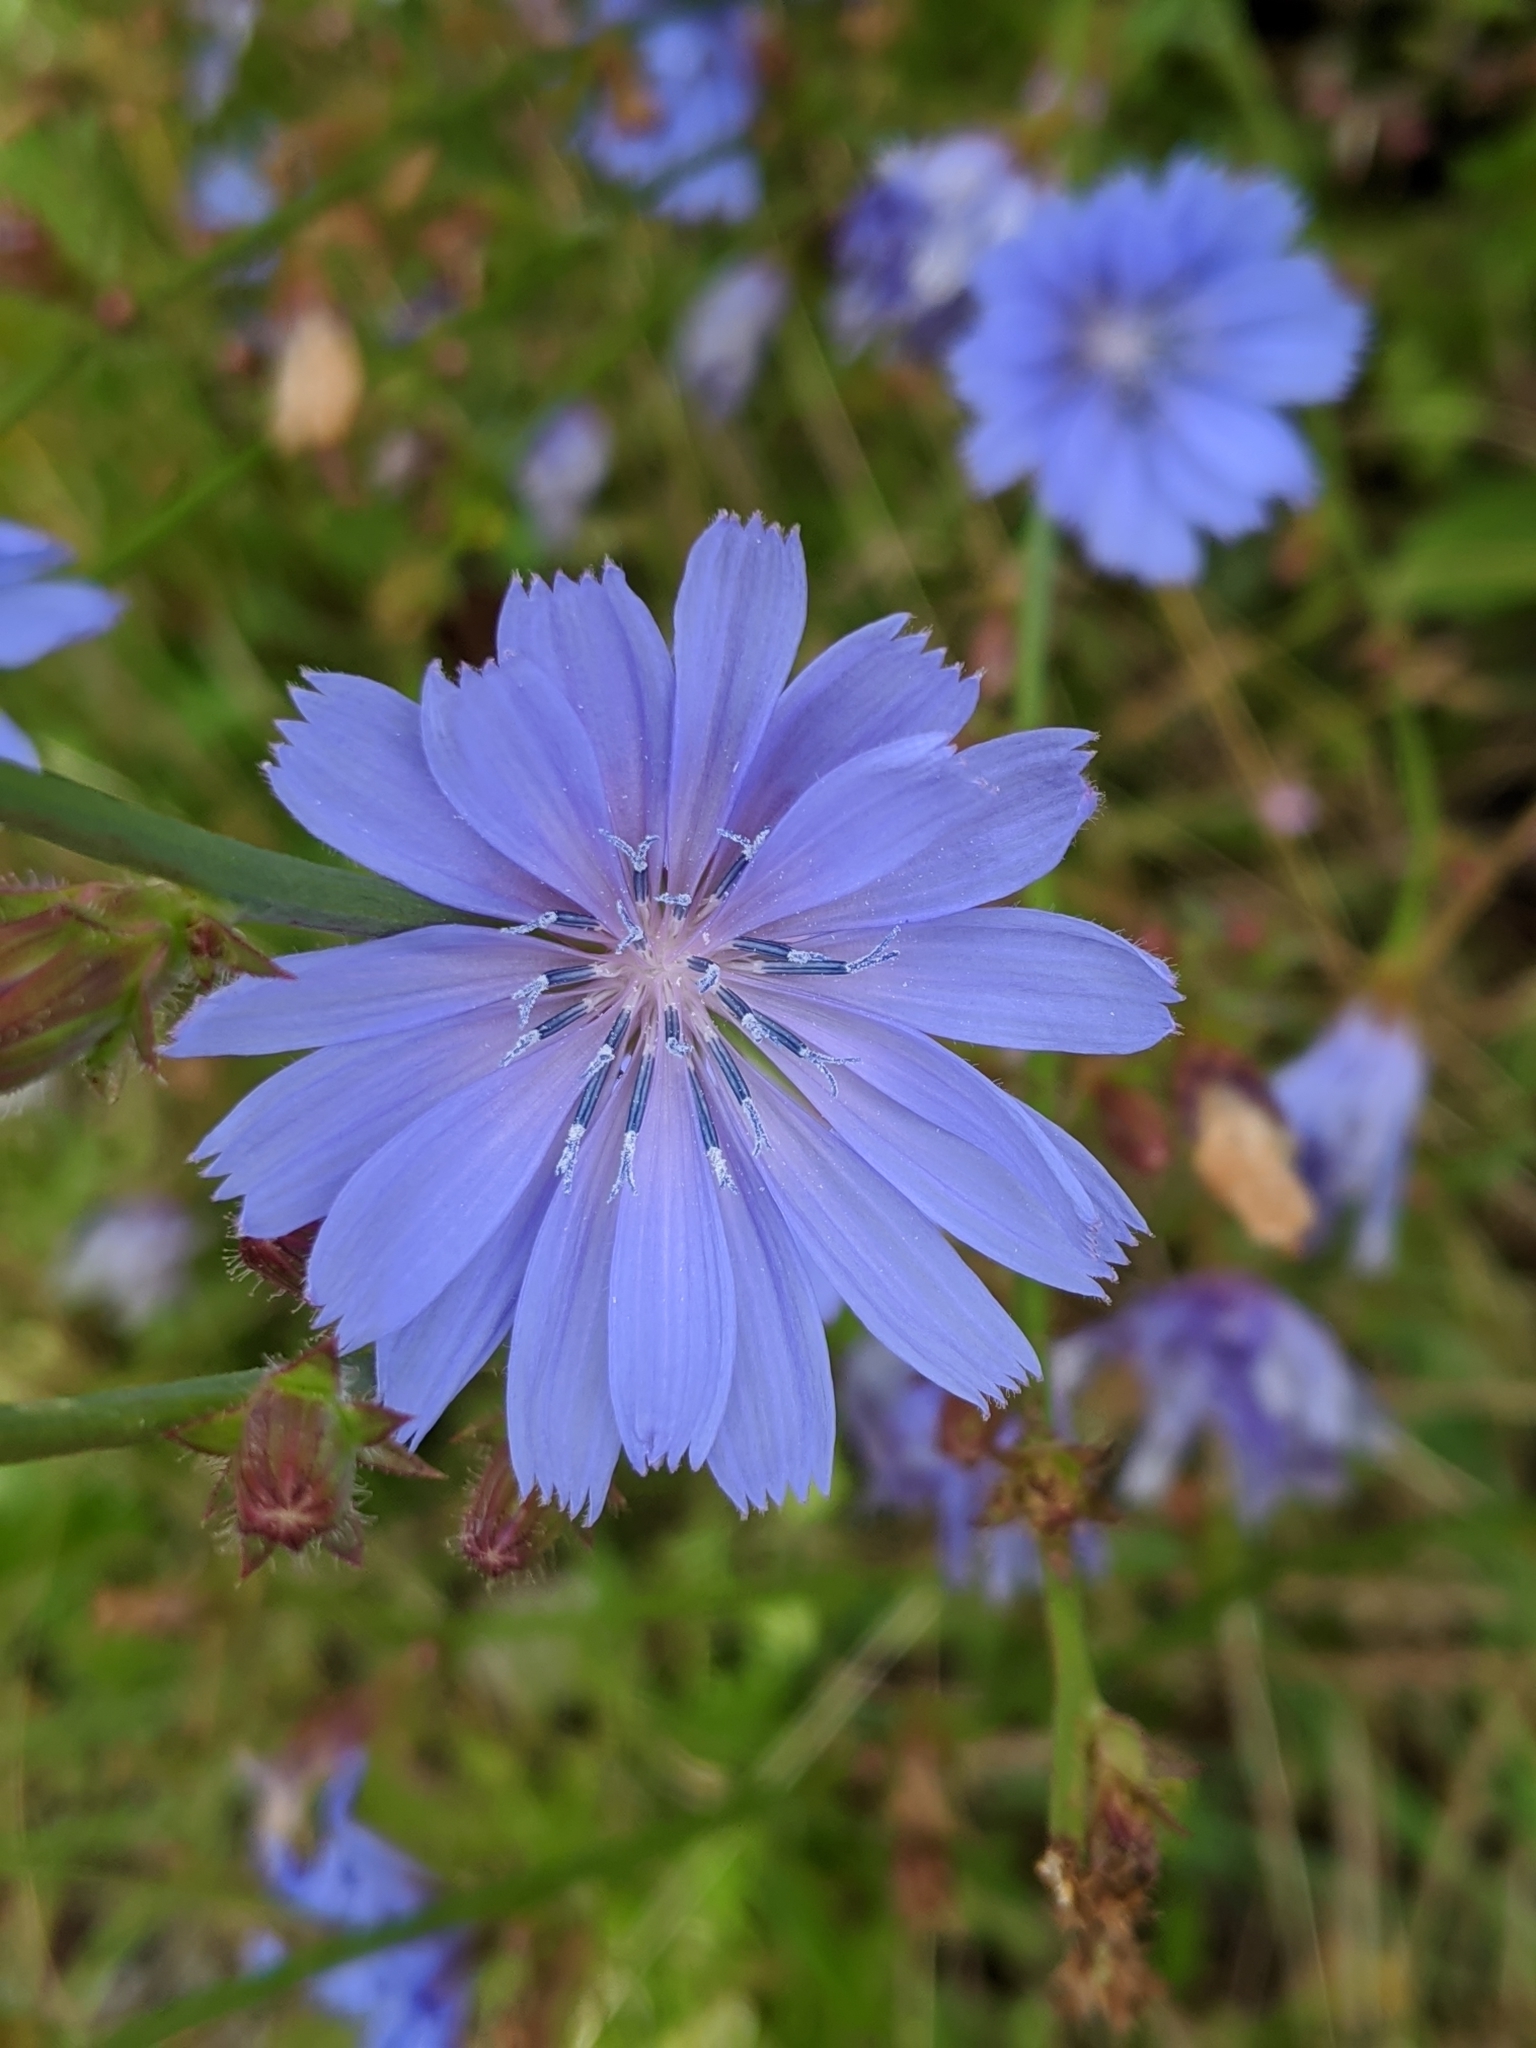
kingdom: Plantae
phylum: Tracheophyta
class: Magnoliopsida
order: Asterales
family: Asteraceae
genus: Cichorium
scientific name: Cichorium intybus
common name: Chicory
